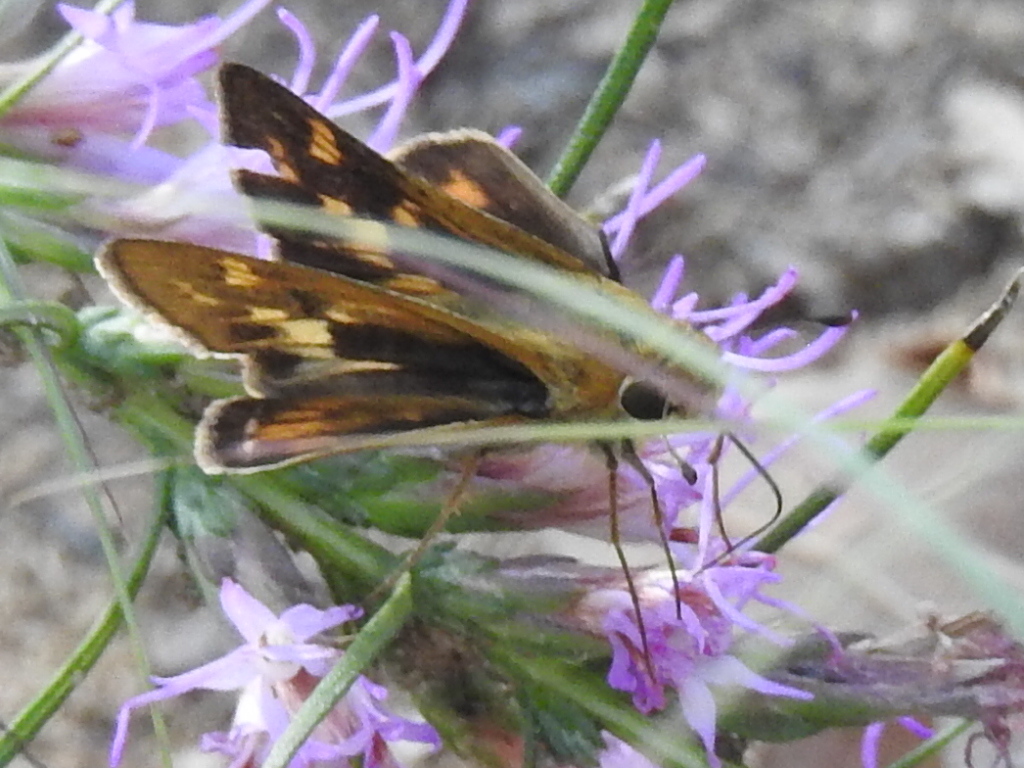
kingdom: Animalia
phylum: Arthropoda
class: Insecta
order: Lepidoptera
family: Hesperiidae
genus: Hylephila
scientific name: Hylephila phyleus
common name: Fiery skipper
